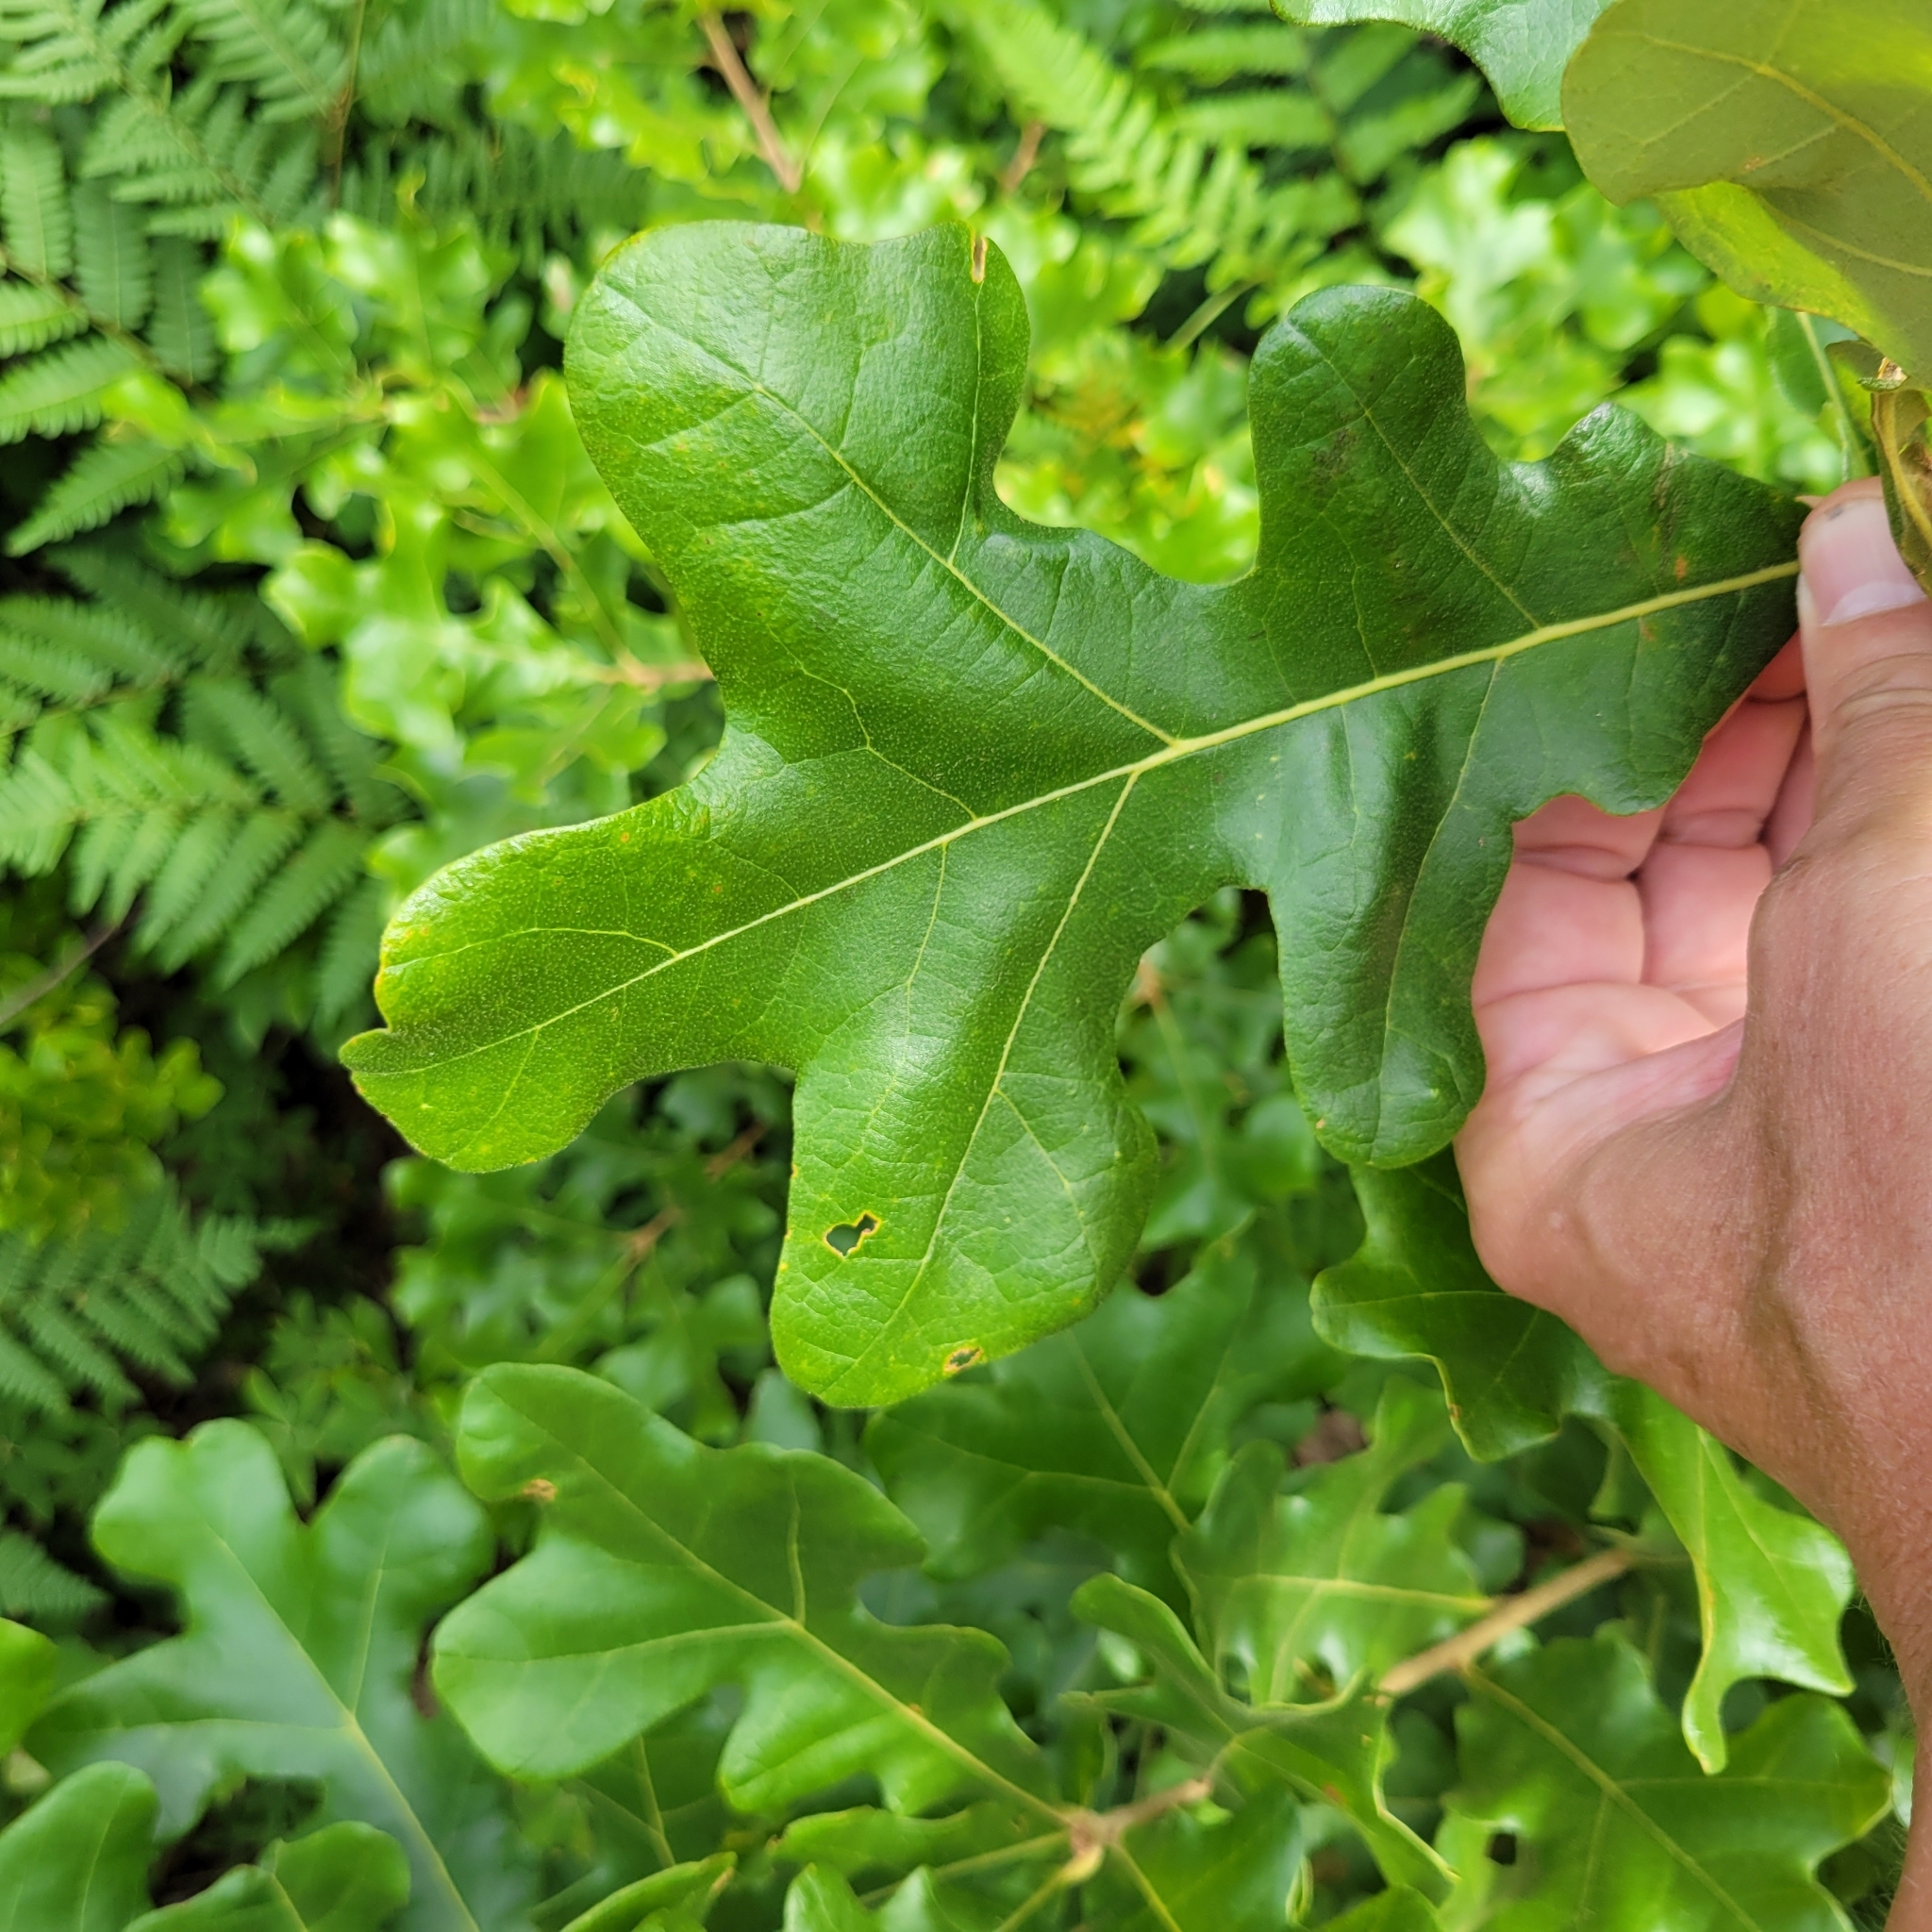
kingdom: Plantae
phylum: Tracheophyta
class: Magnoliopsida
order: Fagales
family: Fagaceae
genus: Quercus
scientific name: Quercus stellata
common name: Post oak
